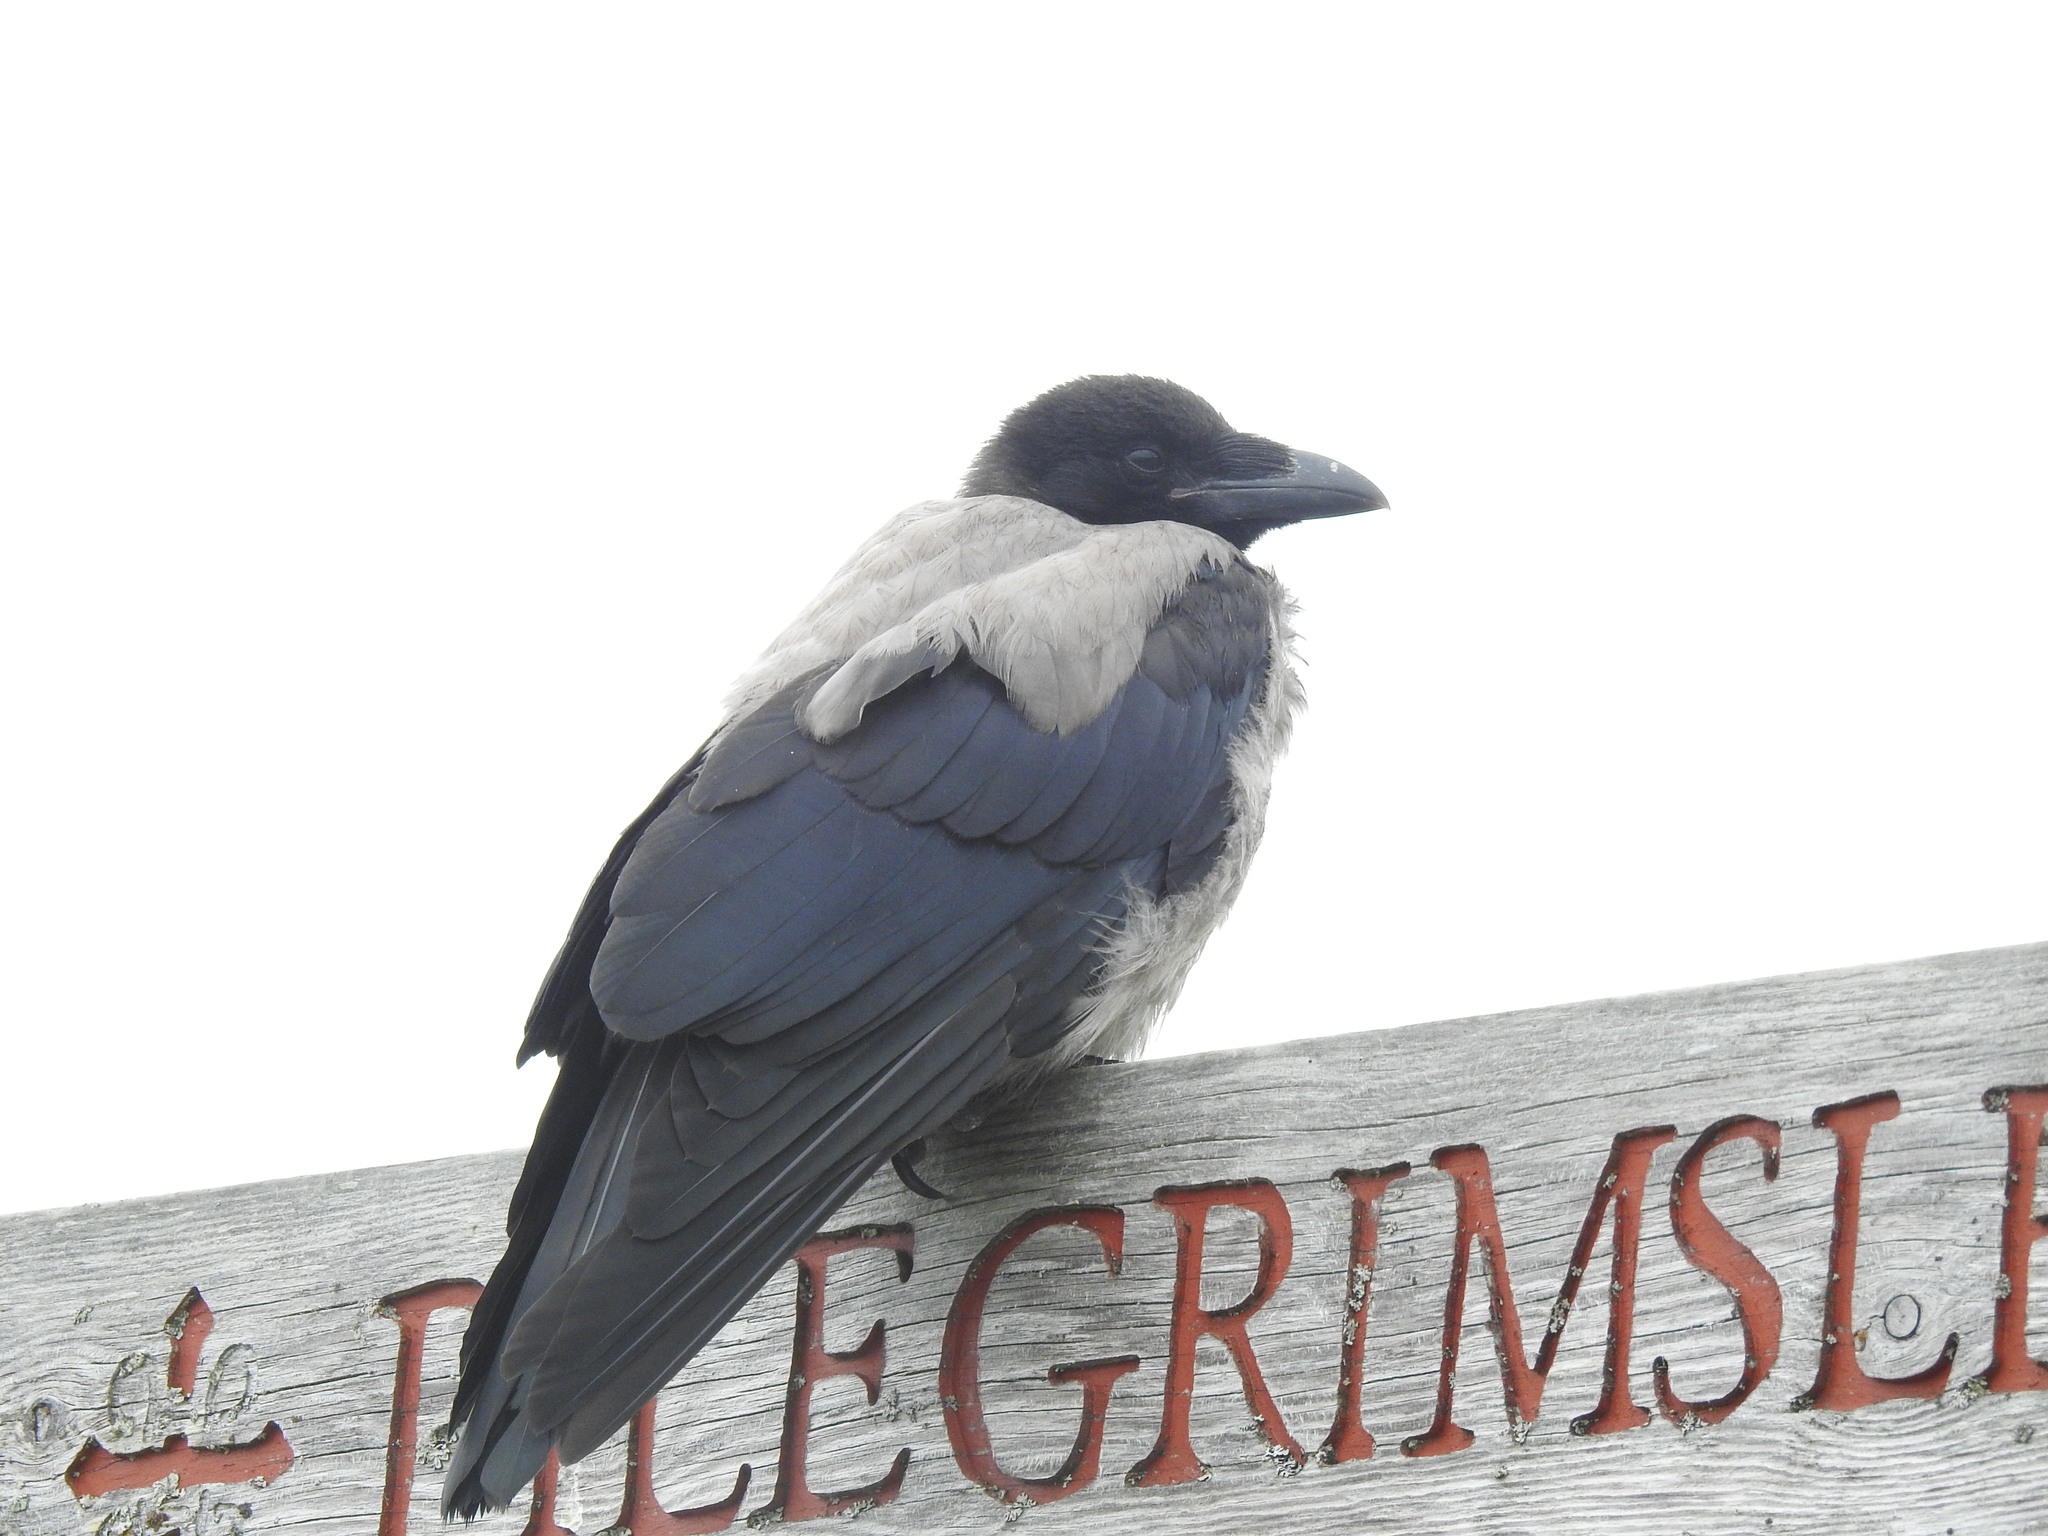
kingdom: Animalia
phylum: Chordata
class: Aves
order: Passeriformes
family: Corvidae
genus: Corvus
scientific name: Corvus cornix
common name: Hooded crow
